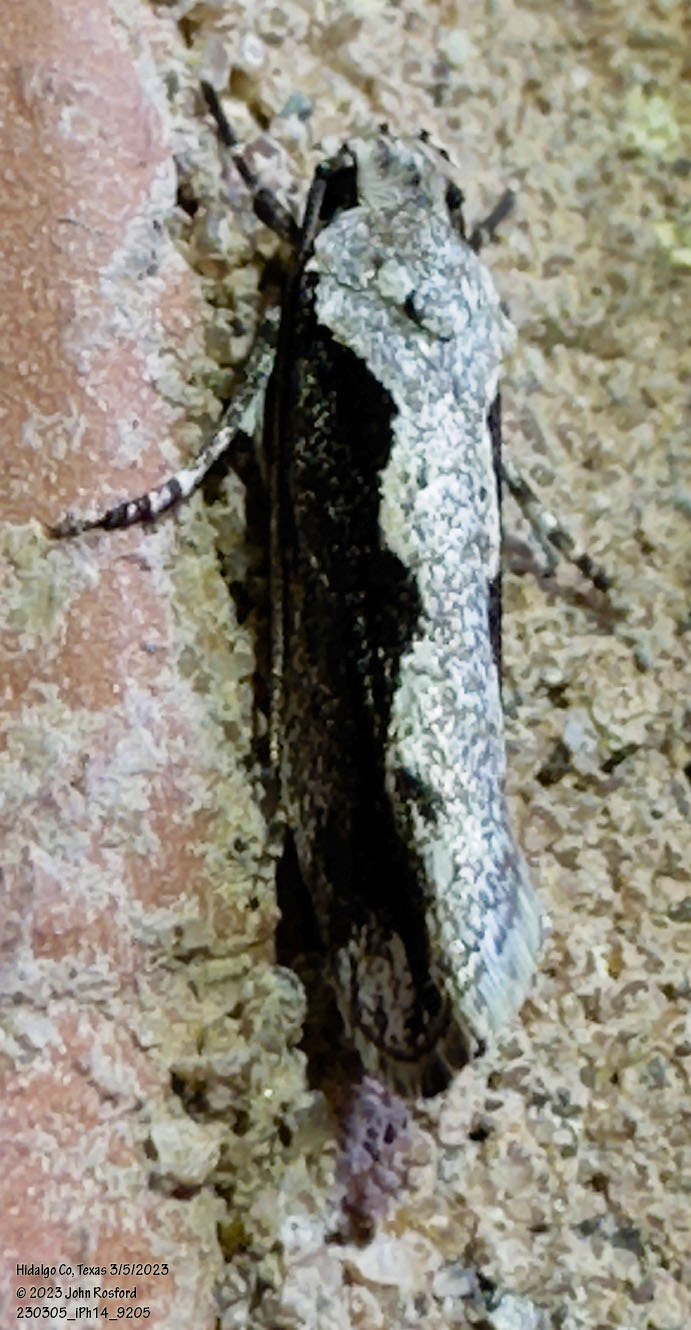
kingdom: Animalia
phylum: Arthropoda
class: Insecta
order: Lepidoptera
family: Ethmiidae
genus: Ethmia
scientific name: Ethmia semiombra
